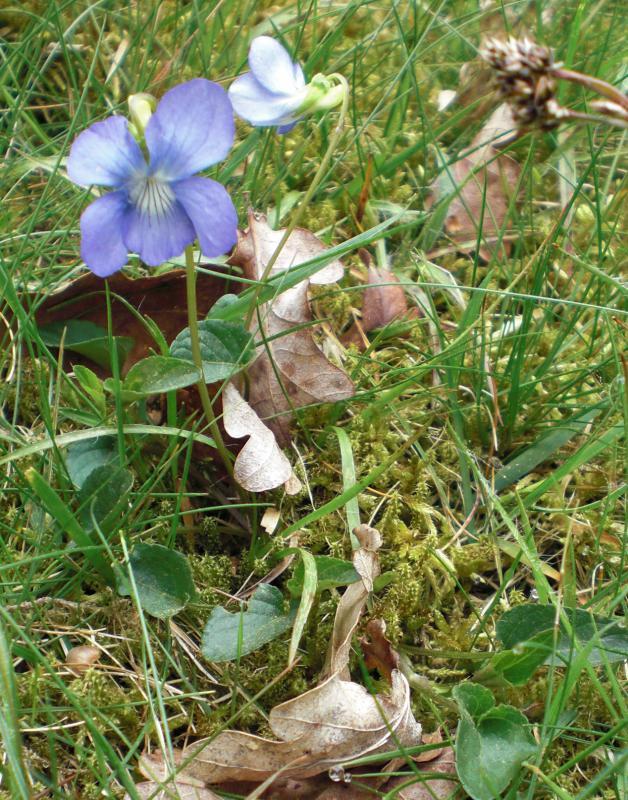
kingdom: Plantae
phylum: Tracheophyta
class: Magnoliopsida
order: Malpighiales
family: Violaceae
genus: Viola
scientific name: Viola canina
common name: Heath dog-violet
